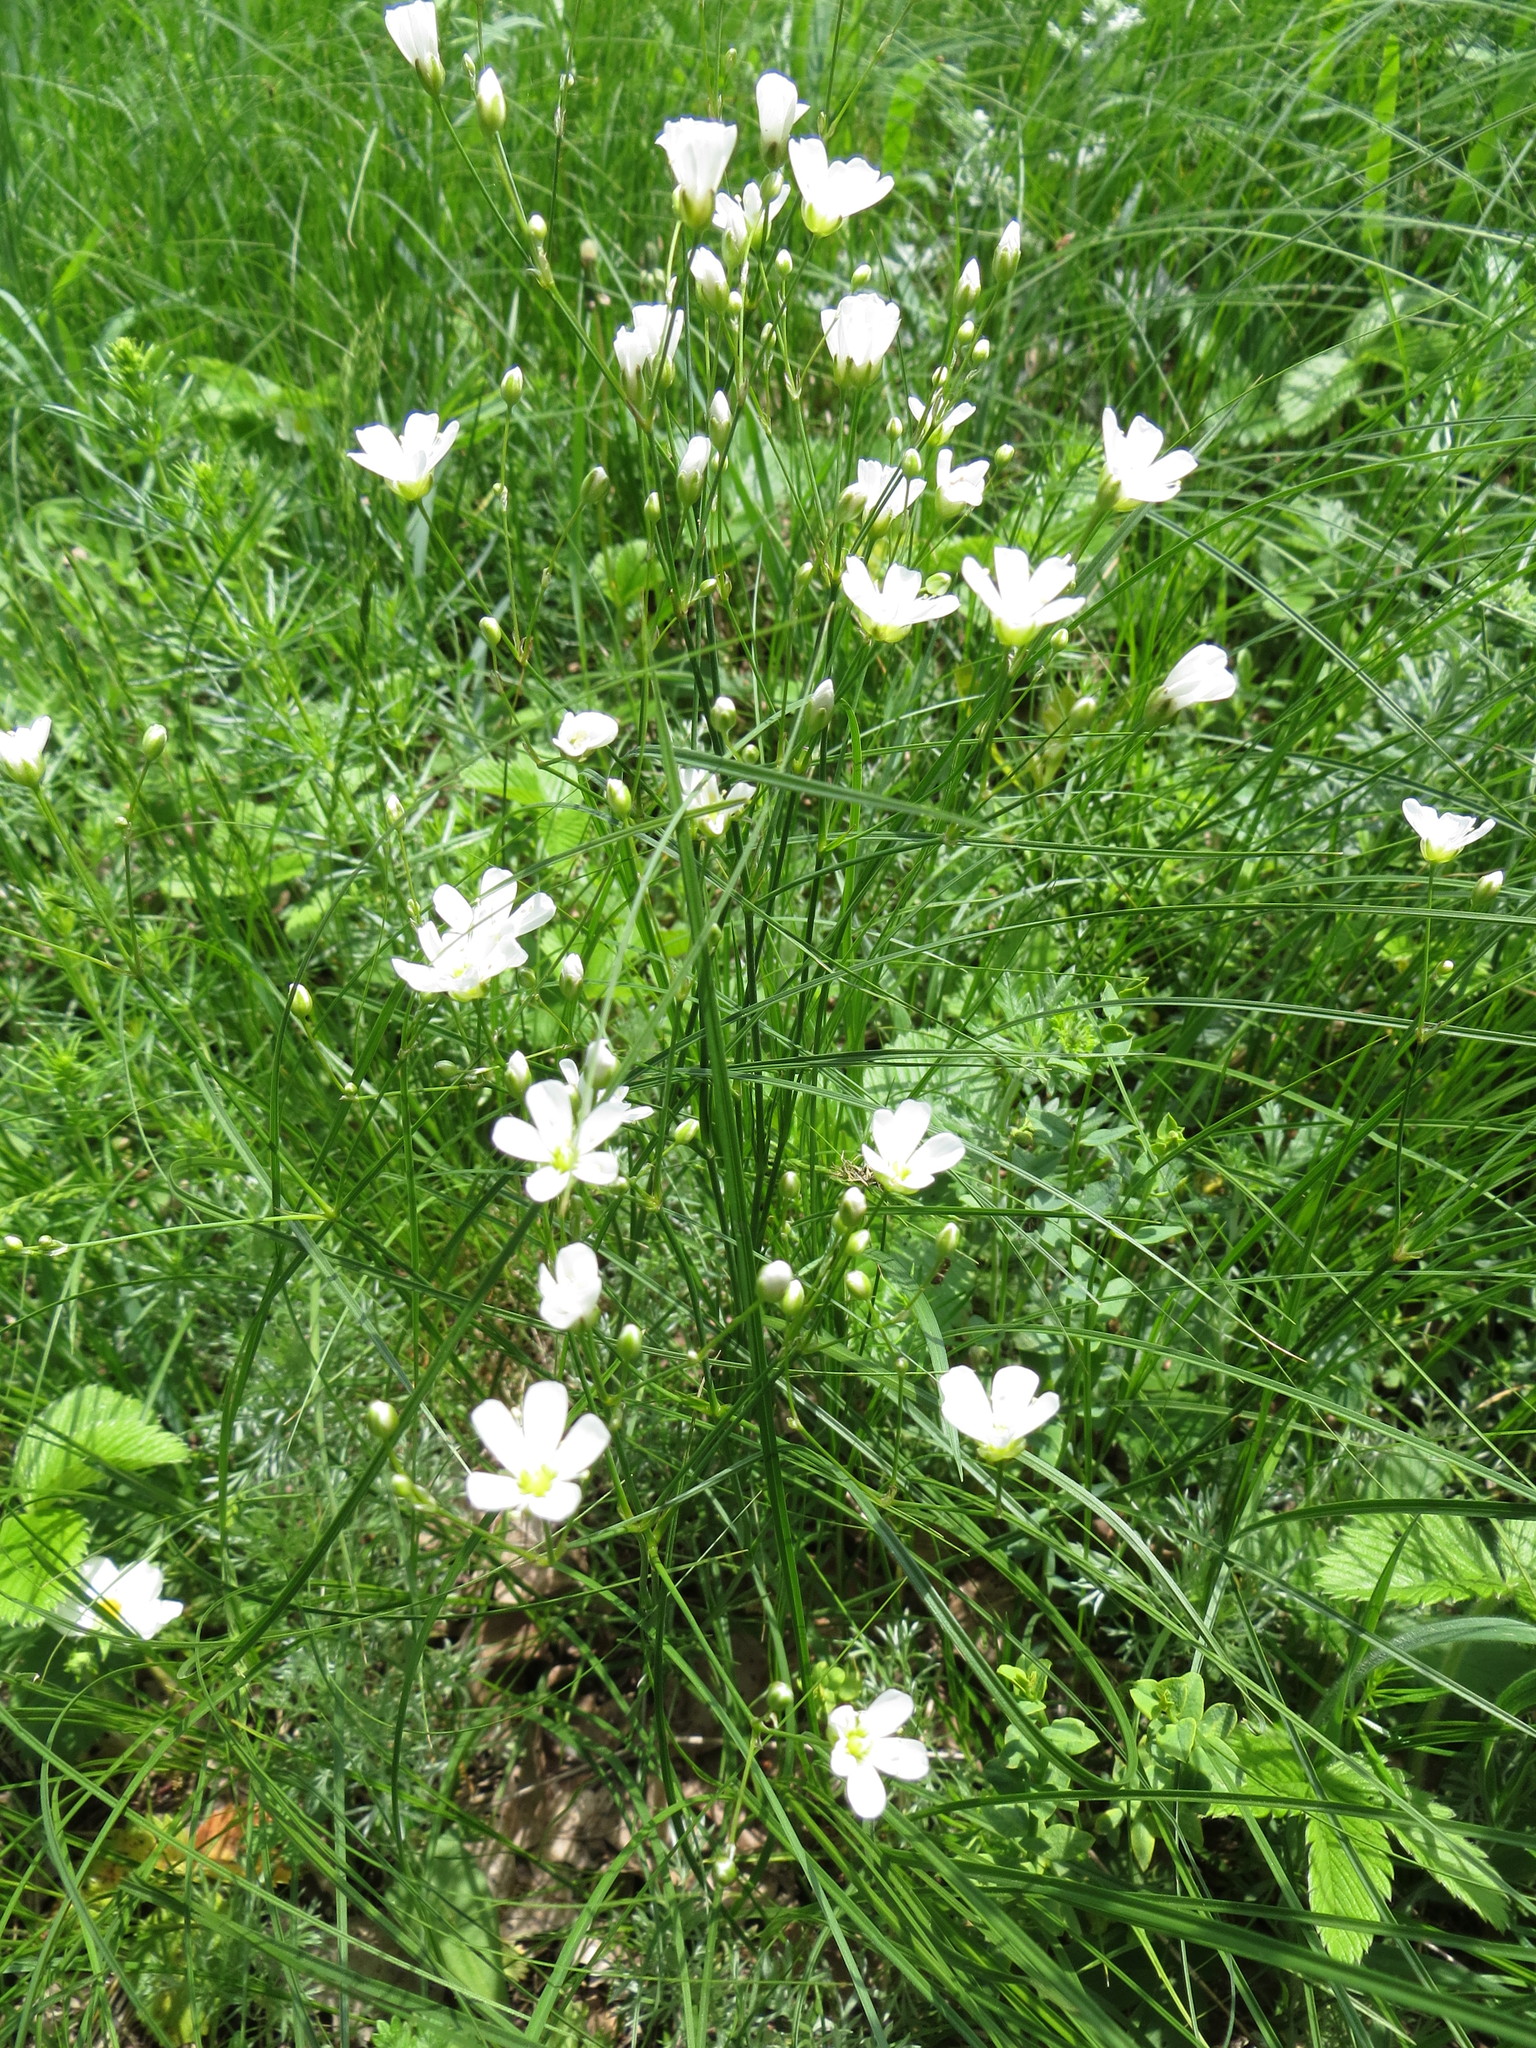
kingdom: Plantae
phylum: Tracheophyta
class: Magnoliopsida
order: Caryophyllales
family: Caryophyllaceae
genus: Eremogone
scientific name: Eremogone saxatilis
